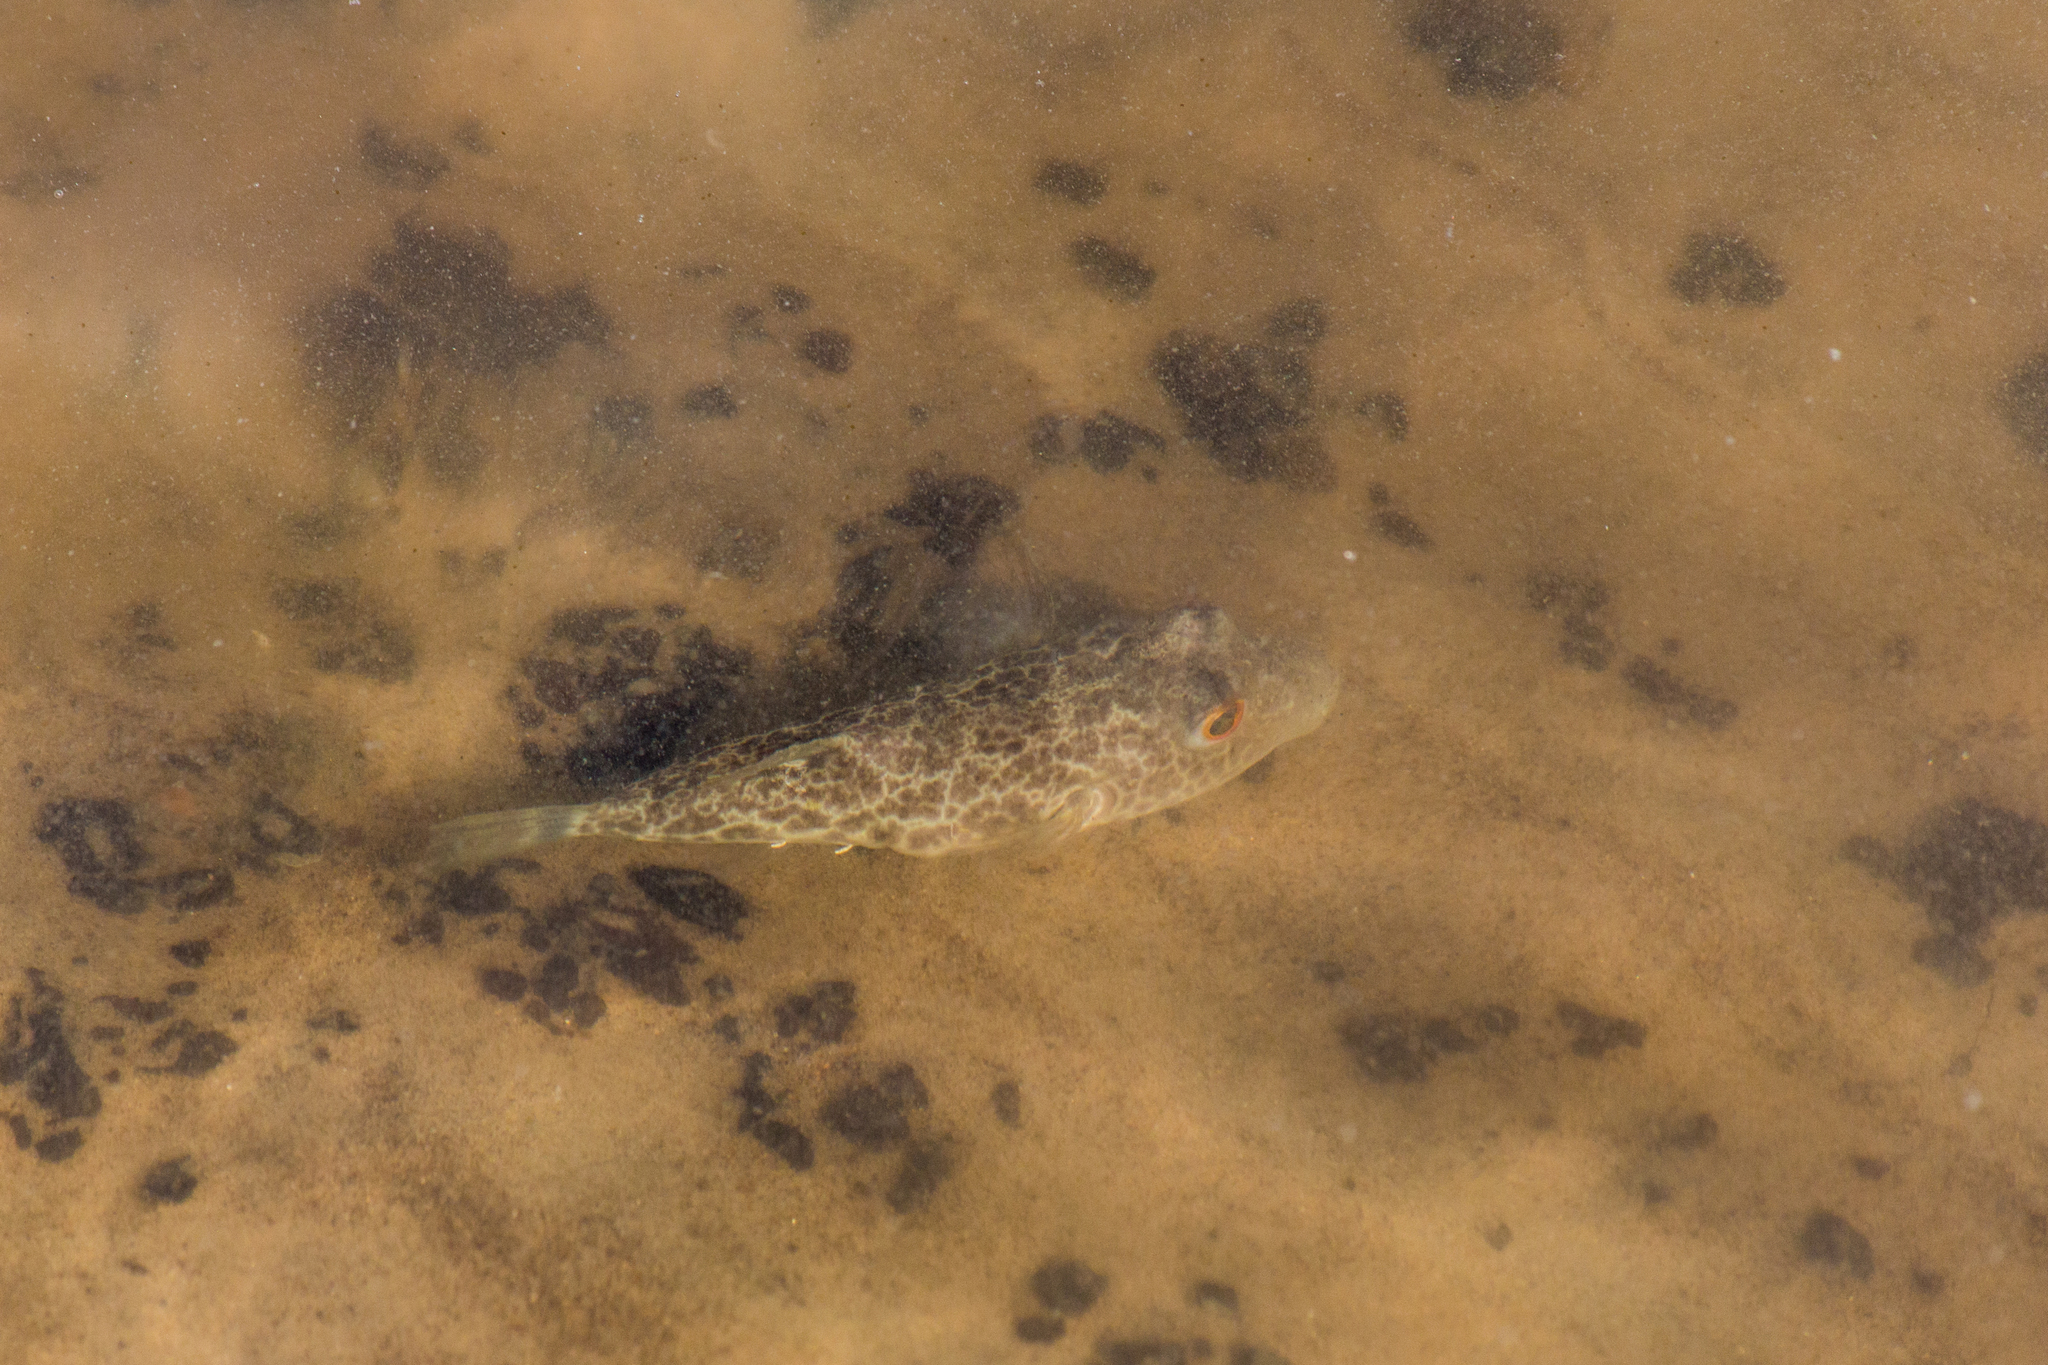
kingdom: Animalia
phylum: Chordata
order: Tetraodontiformes
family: Tetraodontidae
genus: Sphoeroides
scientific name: Sphoeroides greeleyi
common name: Green puffer
